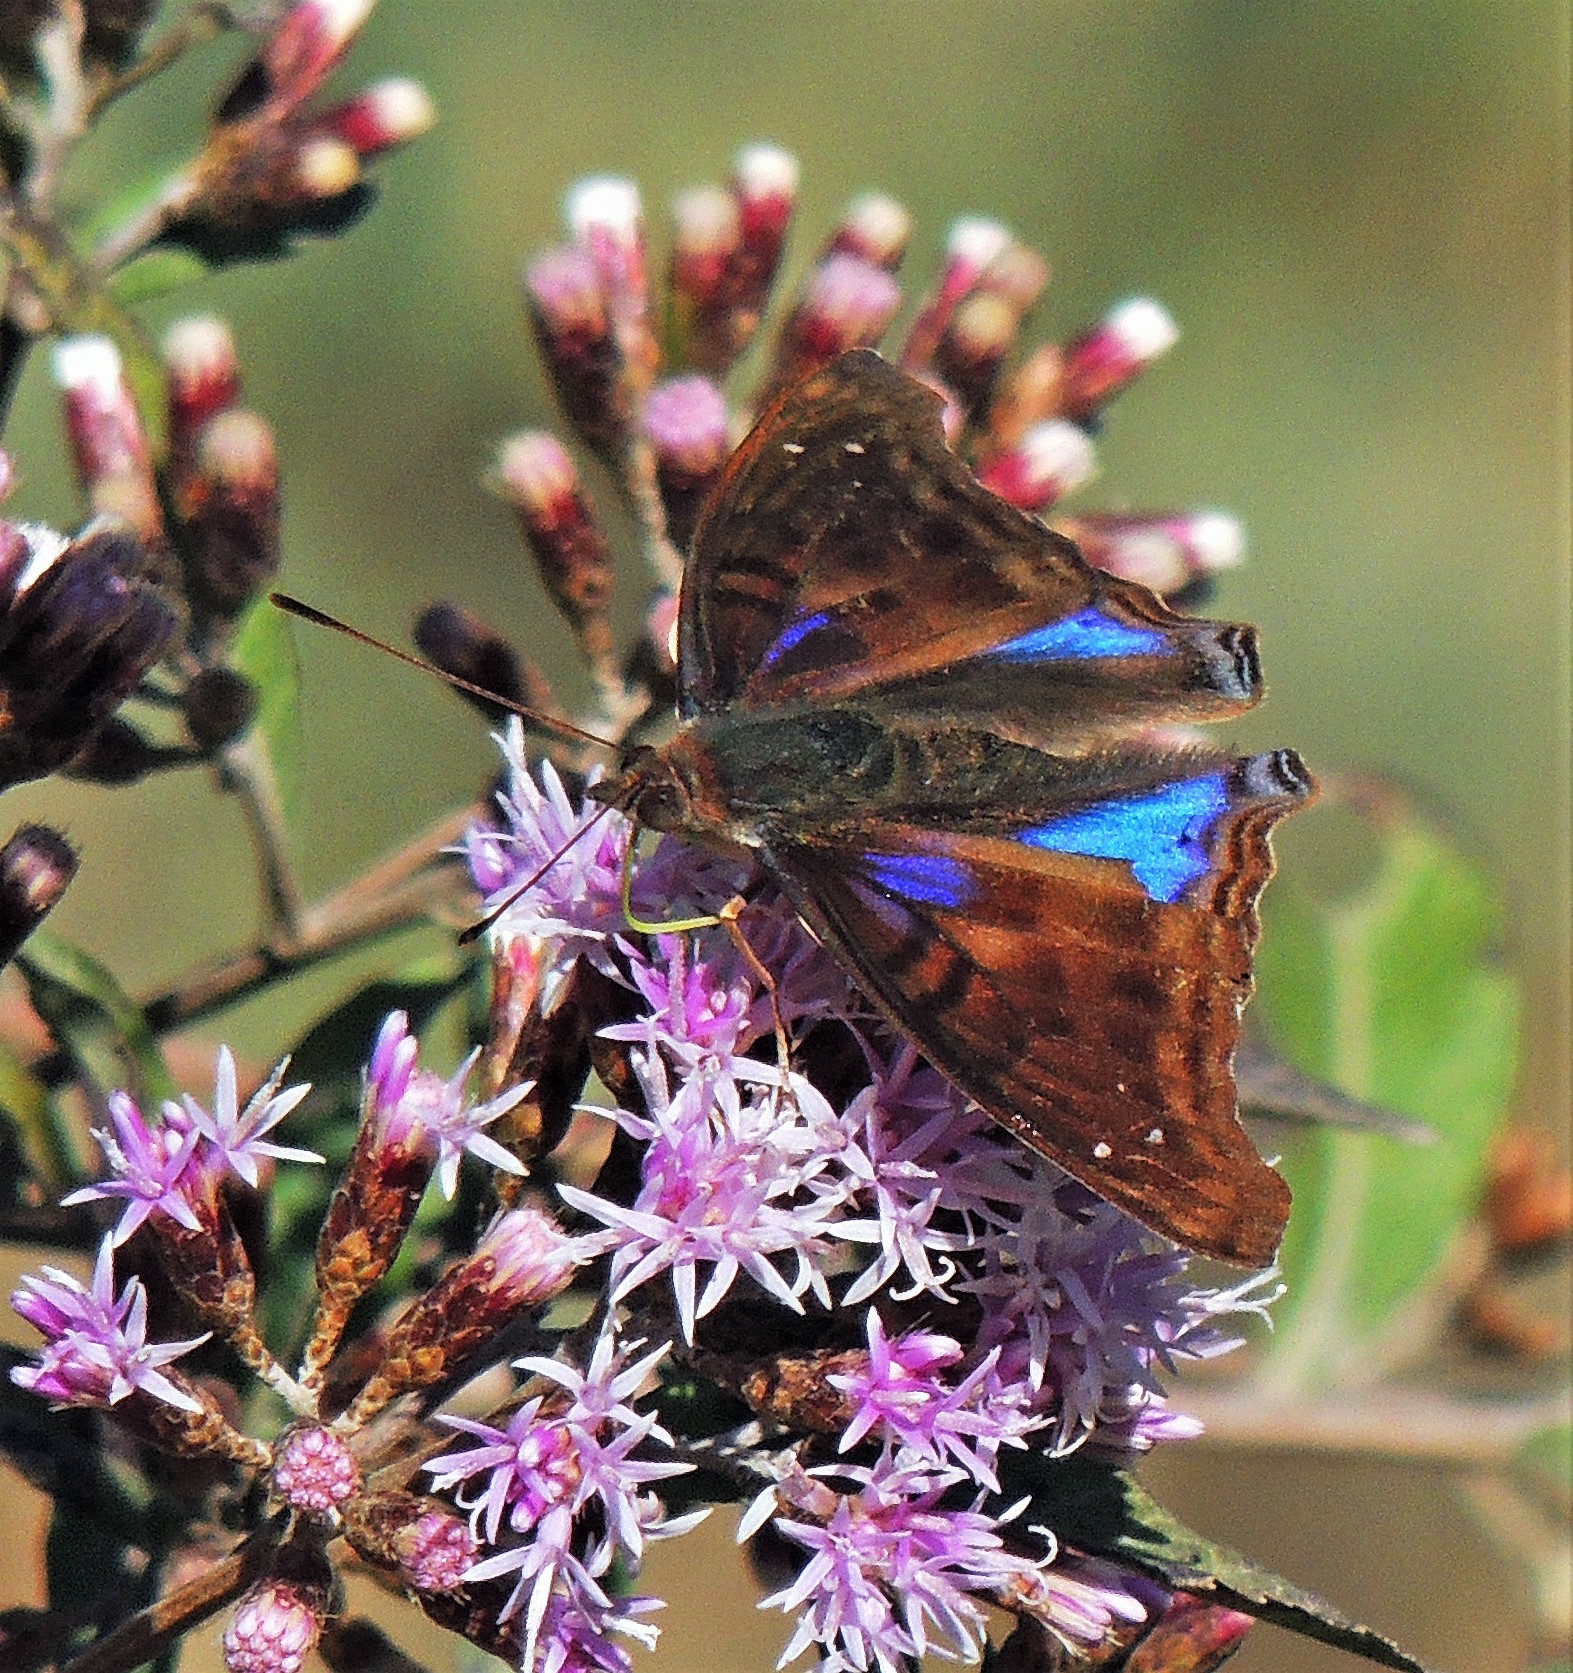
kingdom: Animalia
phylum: Arthropoda
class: Insecta
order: Lepidoptera
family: Nymphalidae
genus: Doxocopa
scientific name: Doxocopa cyane
